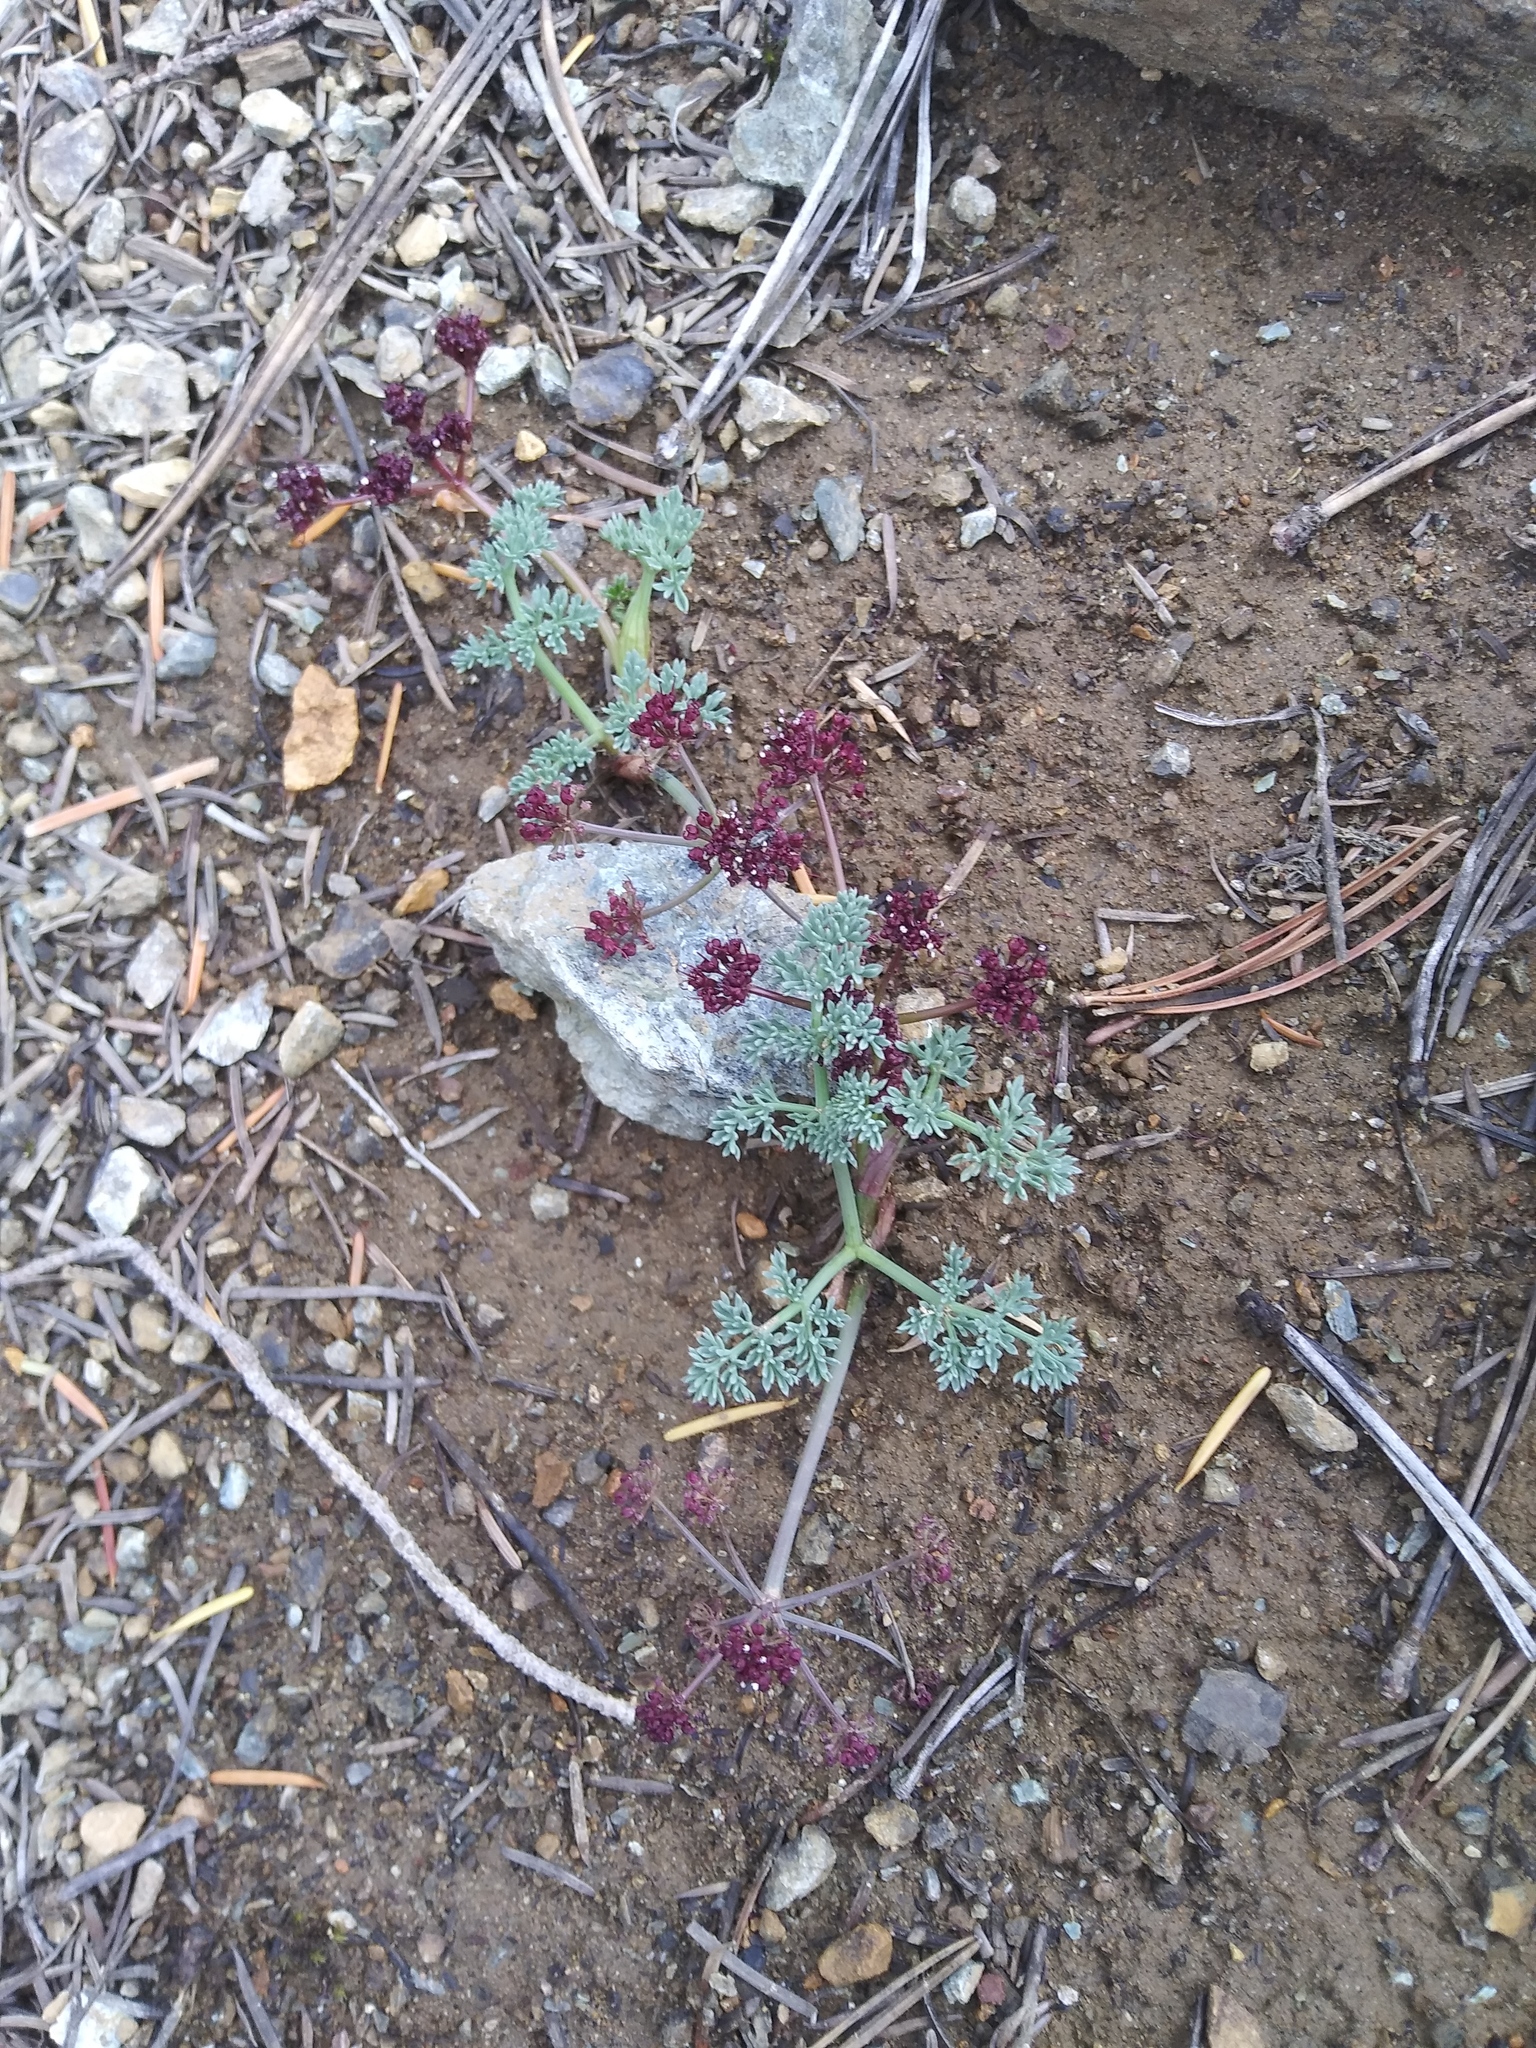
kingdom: Plantae
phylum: Tracheophyta
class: Magnoliopsida
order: Apiales
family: Apiaceae
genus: Lomatium
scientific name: Lomatium cuspidatum
